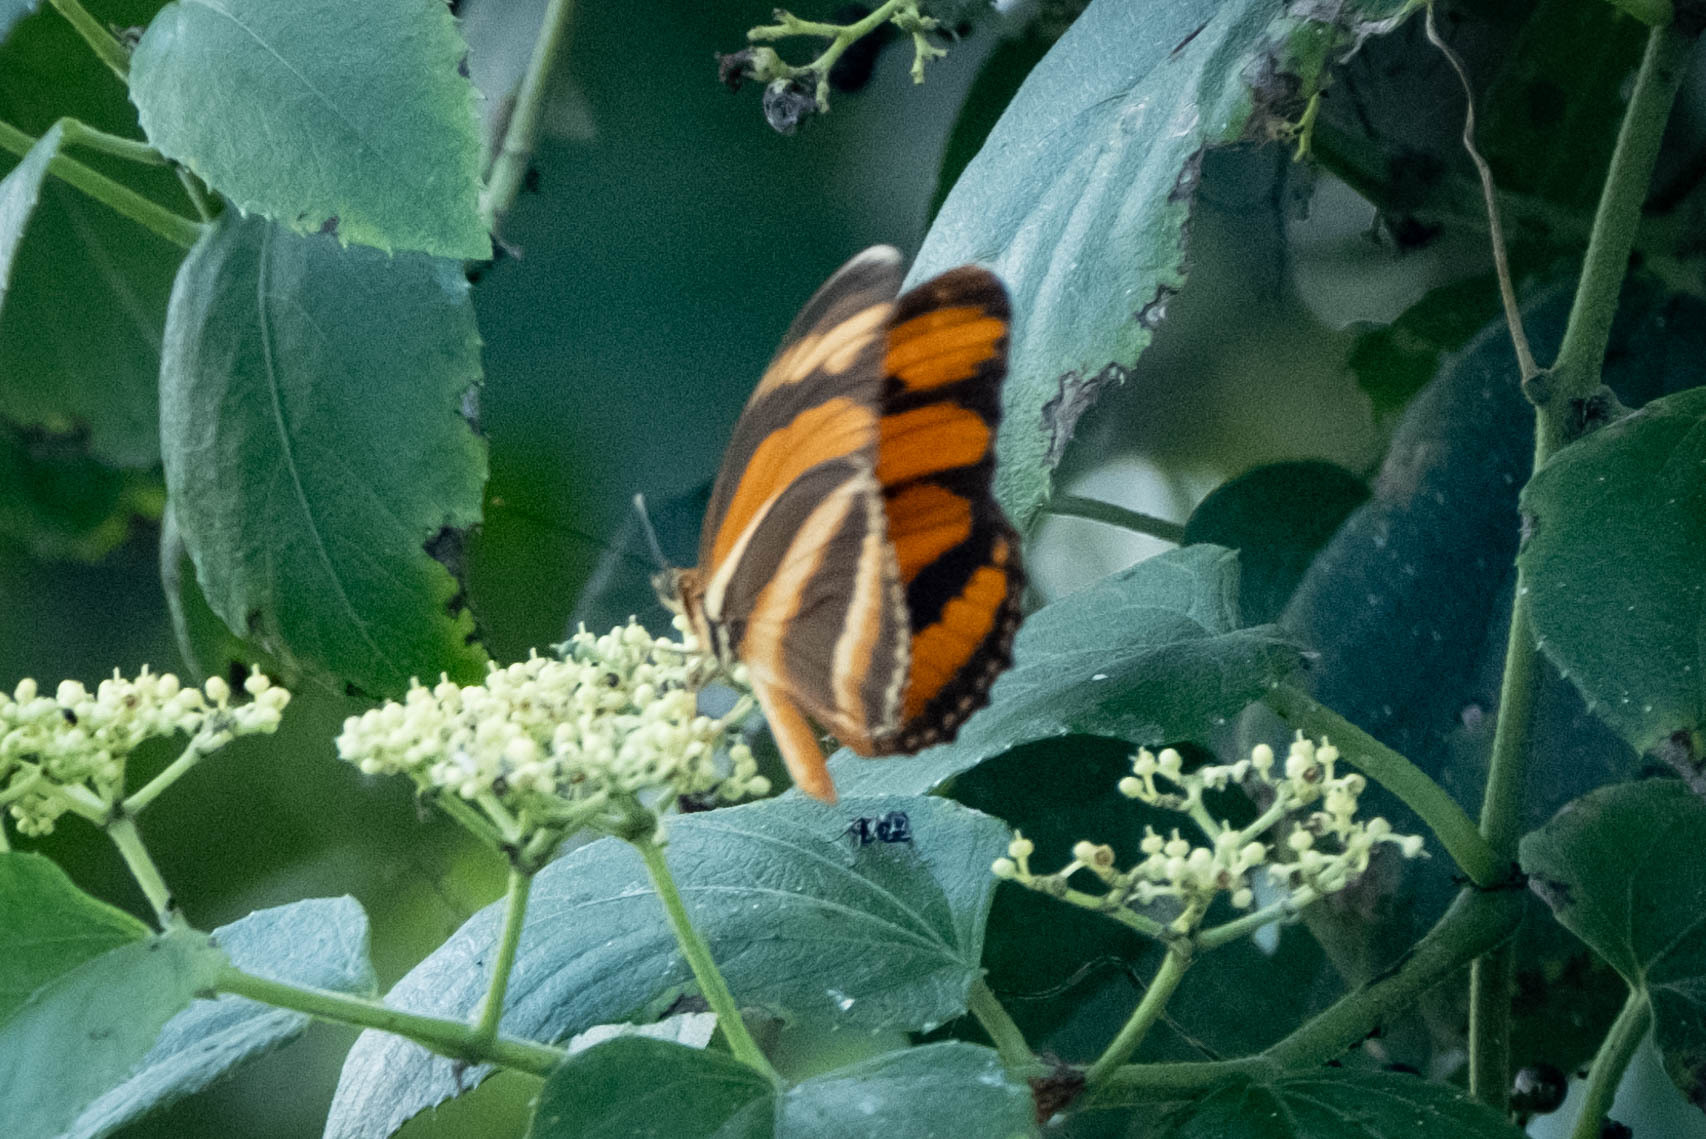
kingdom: Animalia
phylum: Arthropoda
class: Insecta
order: Lepidoptera
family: Nymphalidae
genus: Dryadula
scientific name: Dryadula phaetusa
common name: Banded orange heliconian
